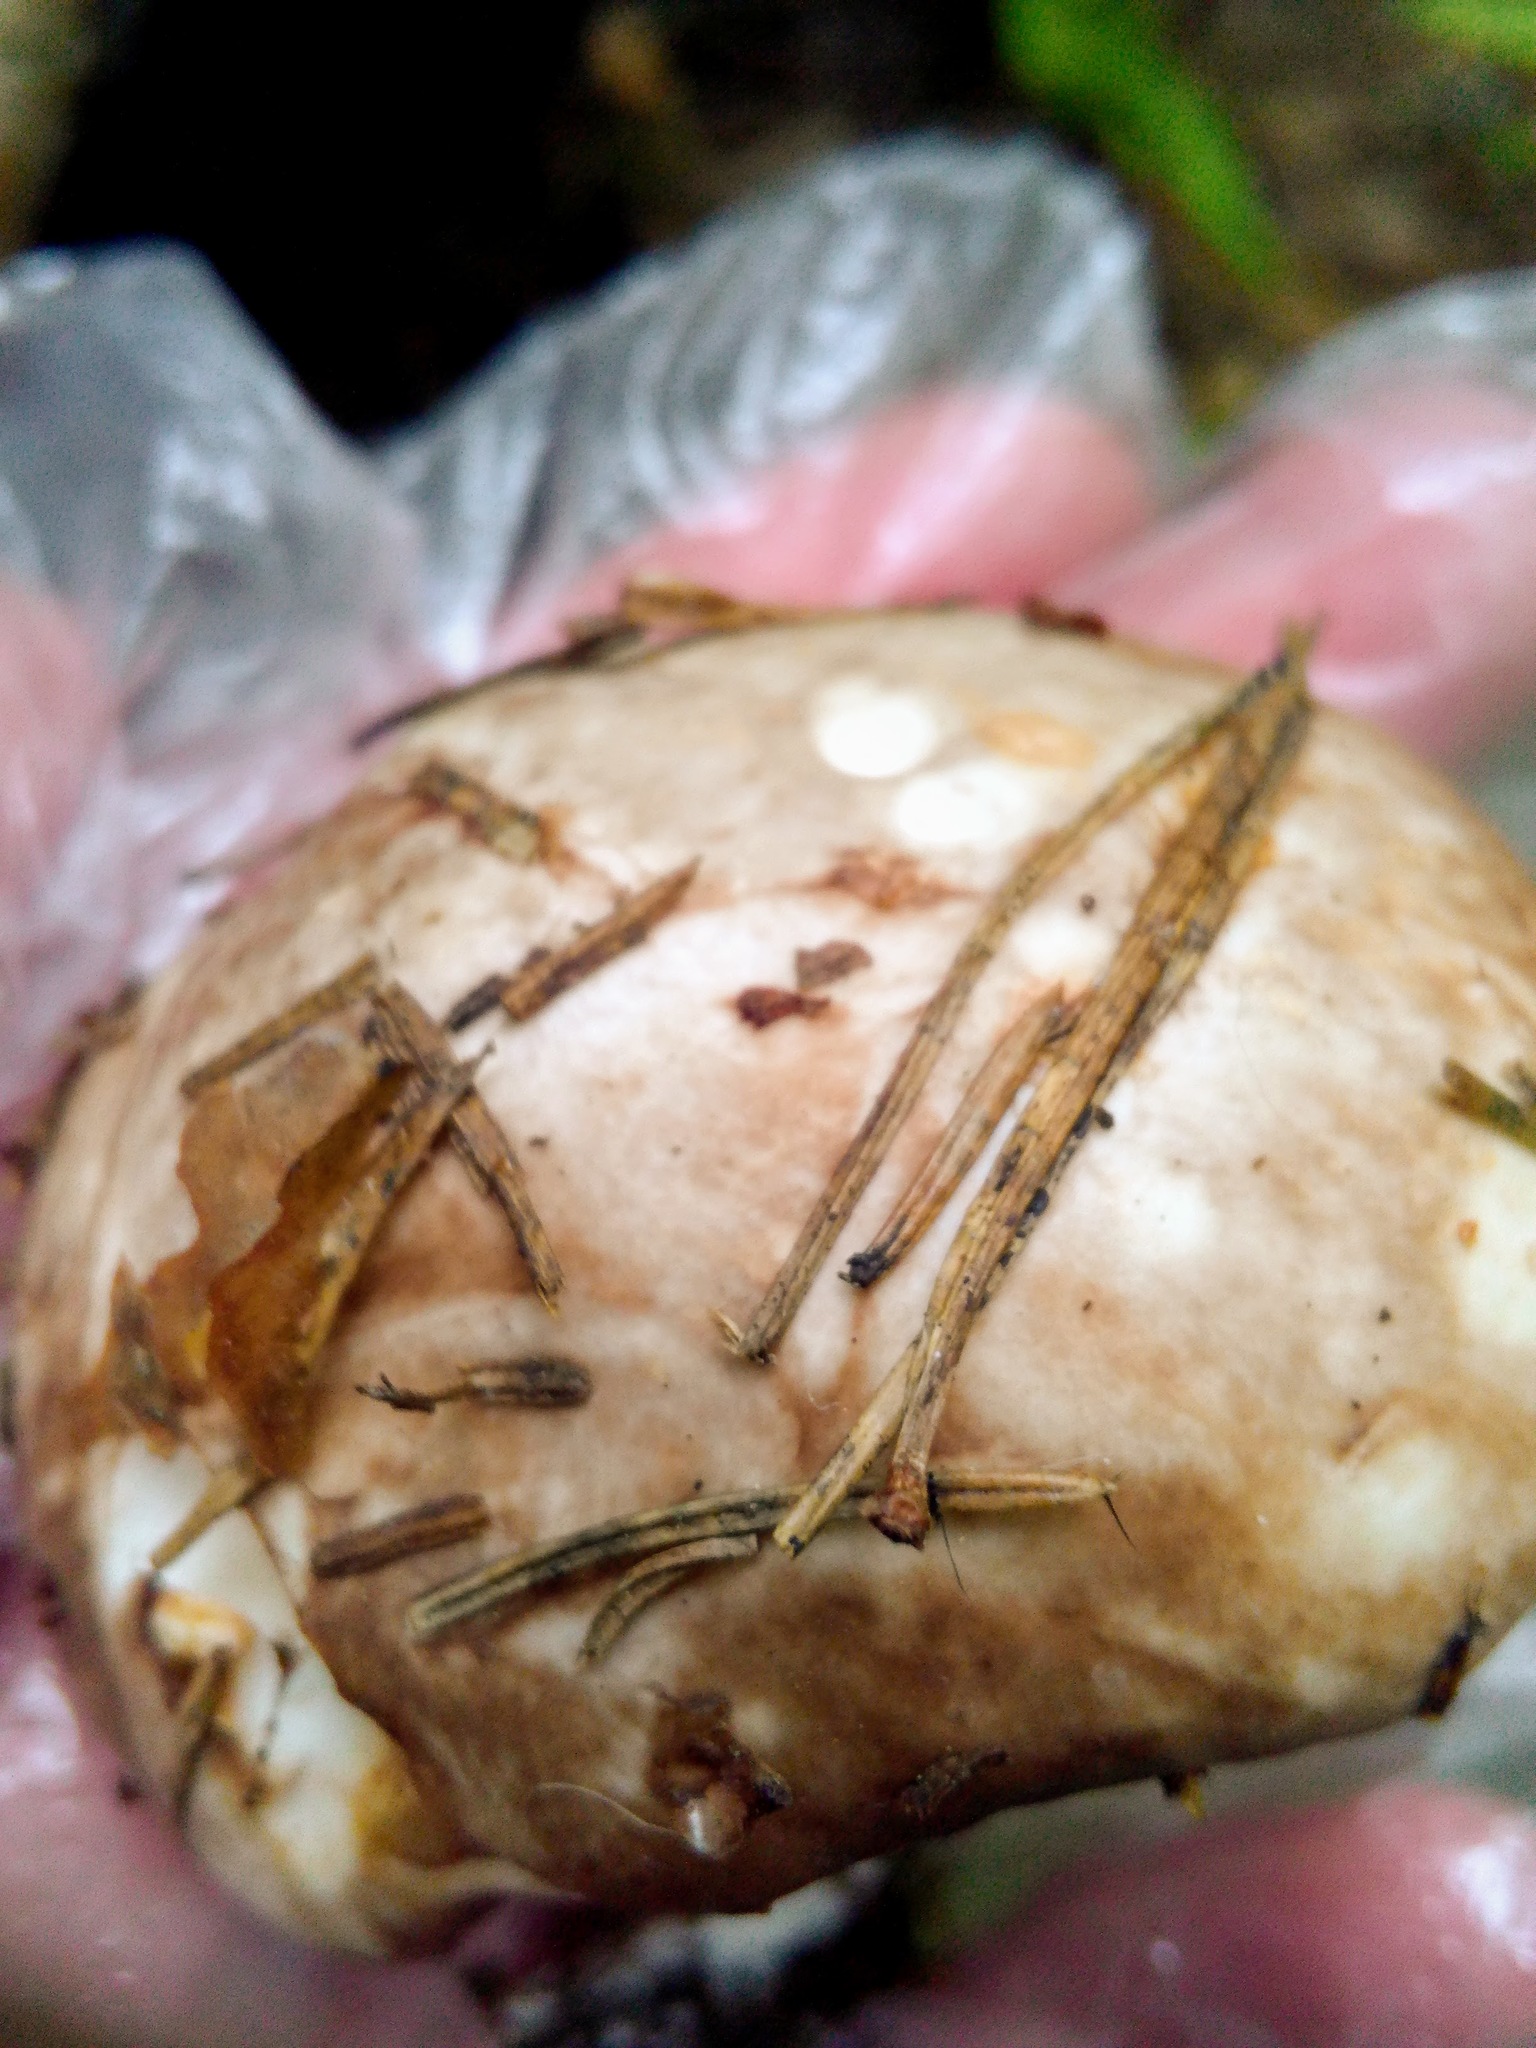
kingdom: Fungi
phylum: Basidiomycota
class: Agaricomycetes
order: Boletales
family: Suillaceae
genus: Suillus
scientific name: Suillus placidus
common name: Slippery white bolete
